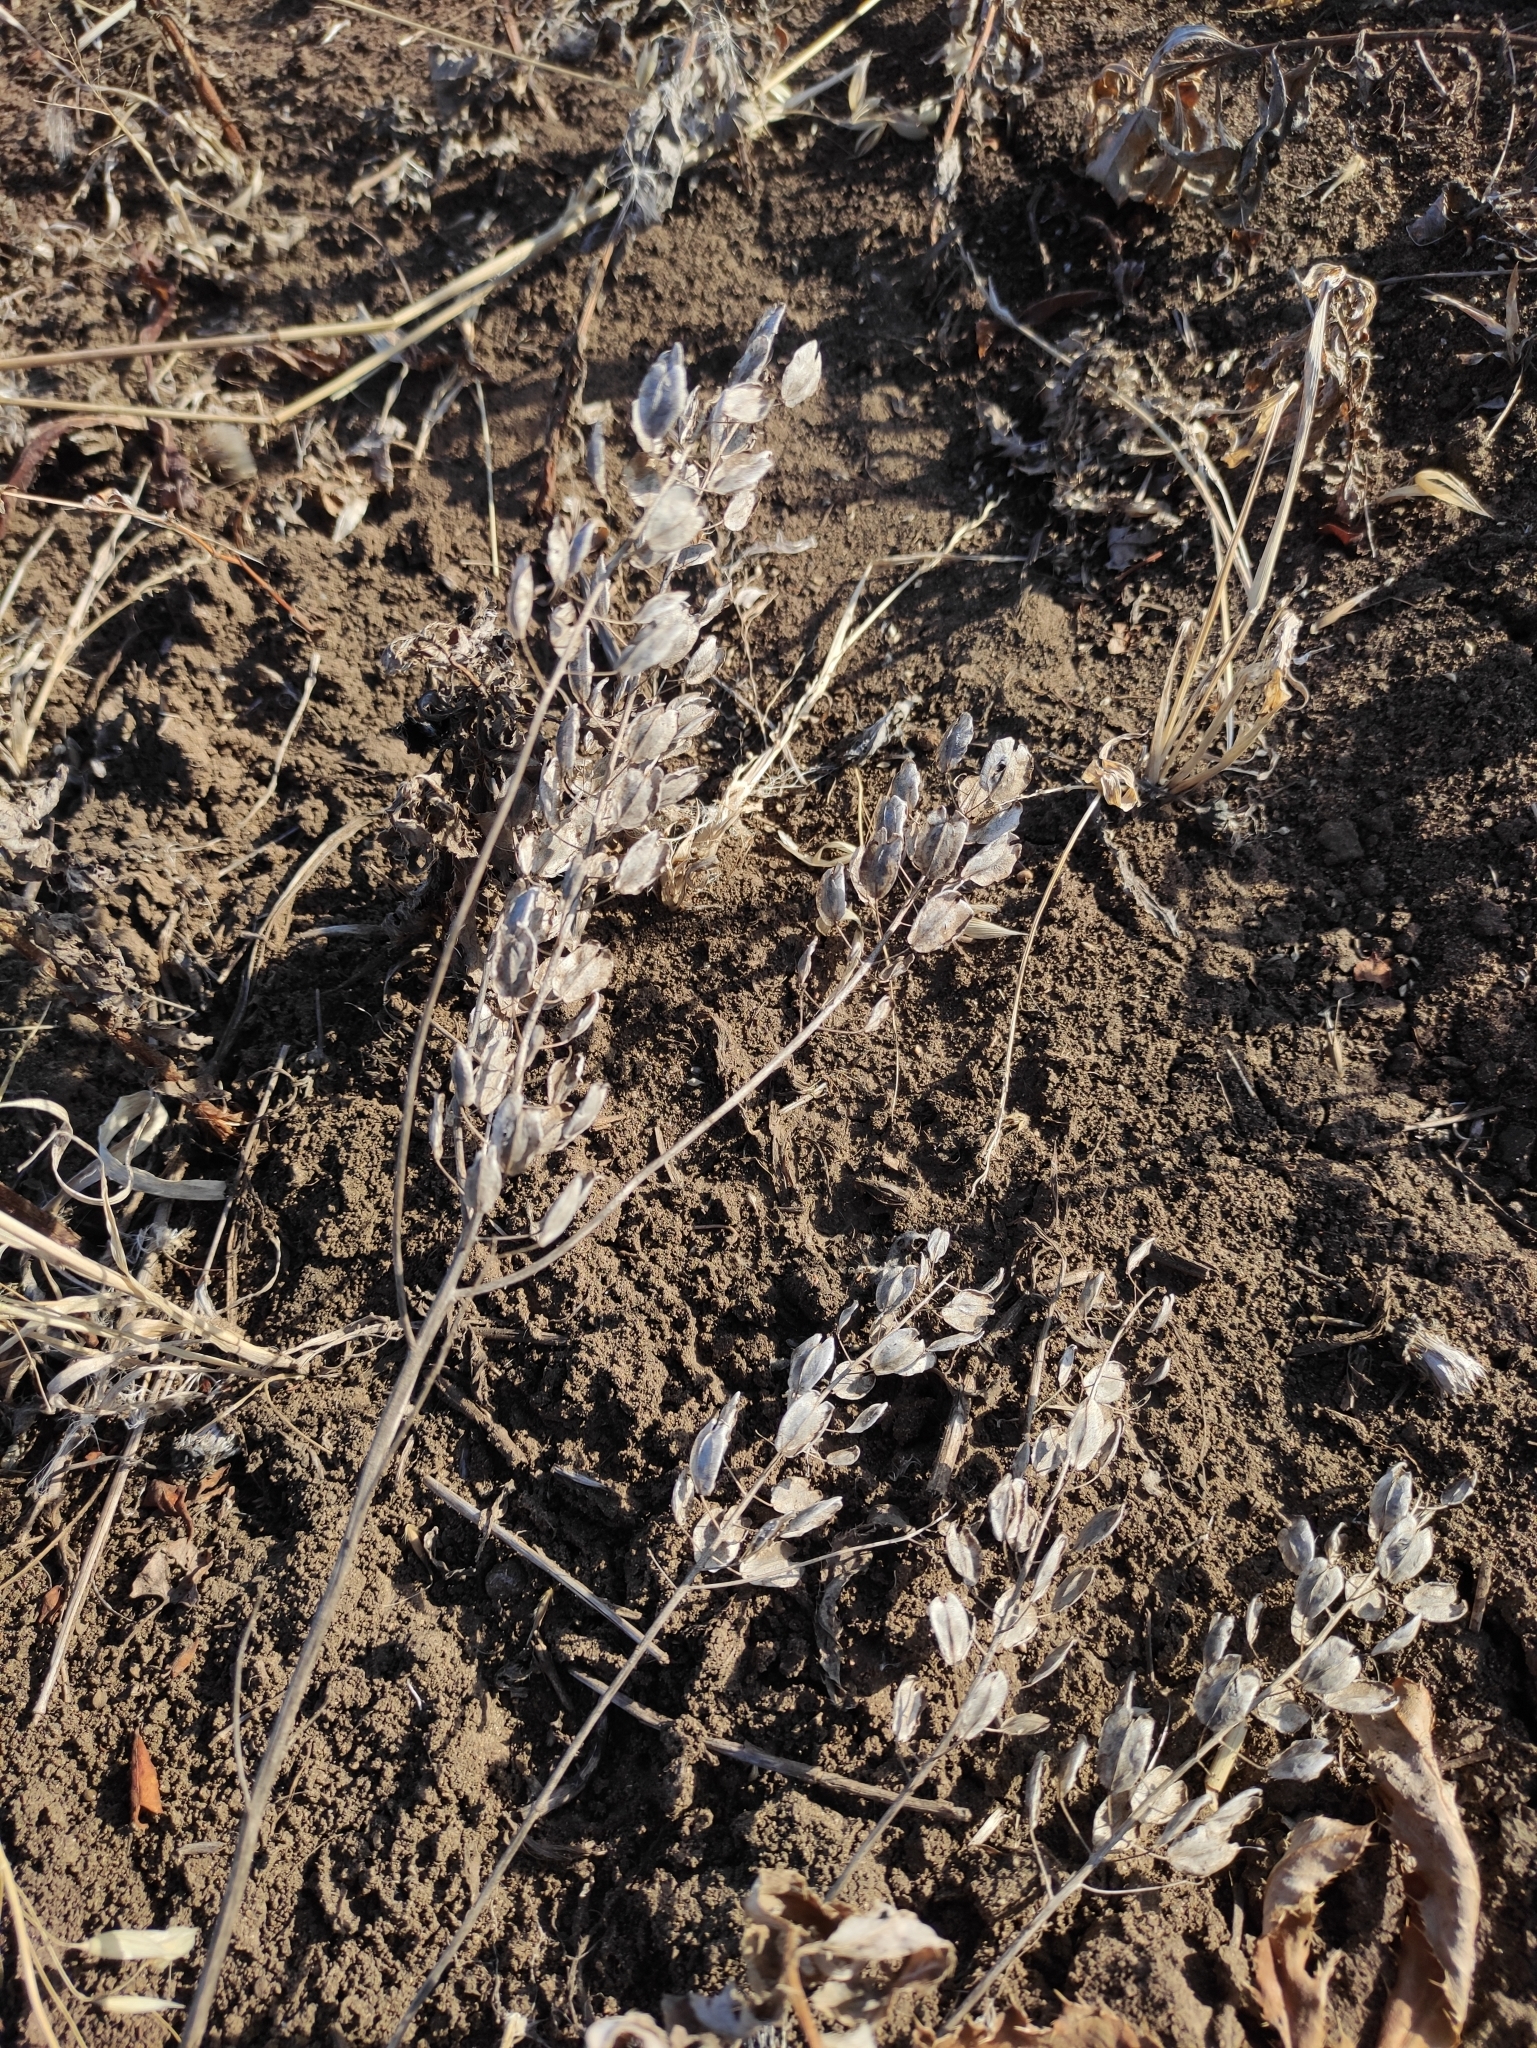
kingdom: Plantae
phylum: Tracheophyta
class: Magnoliopsida
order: Brassicales
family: Brassicaceae
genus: Thlaspi
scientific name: Thlaspi arvense
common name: Field pennycress
